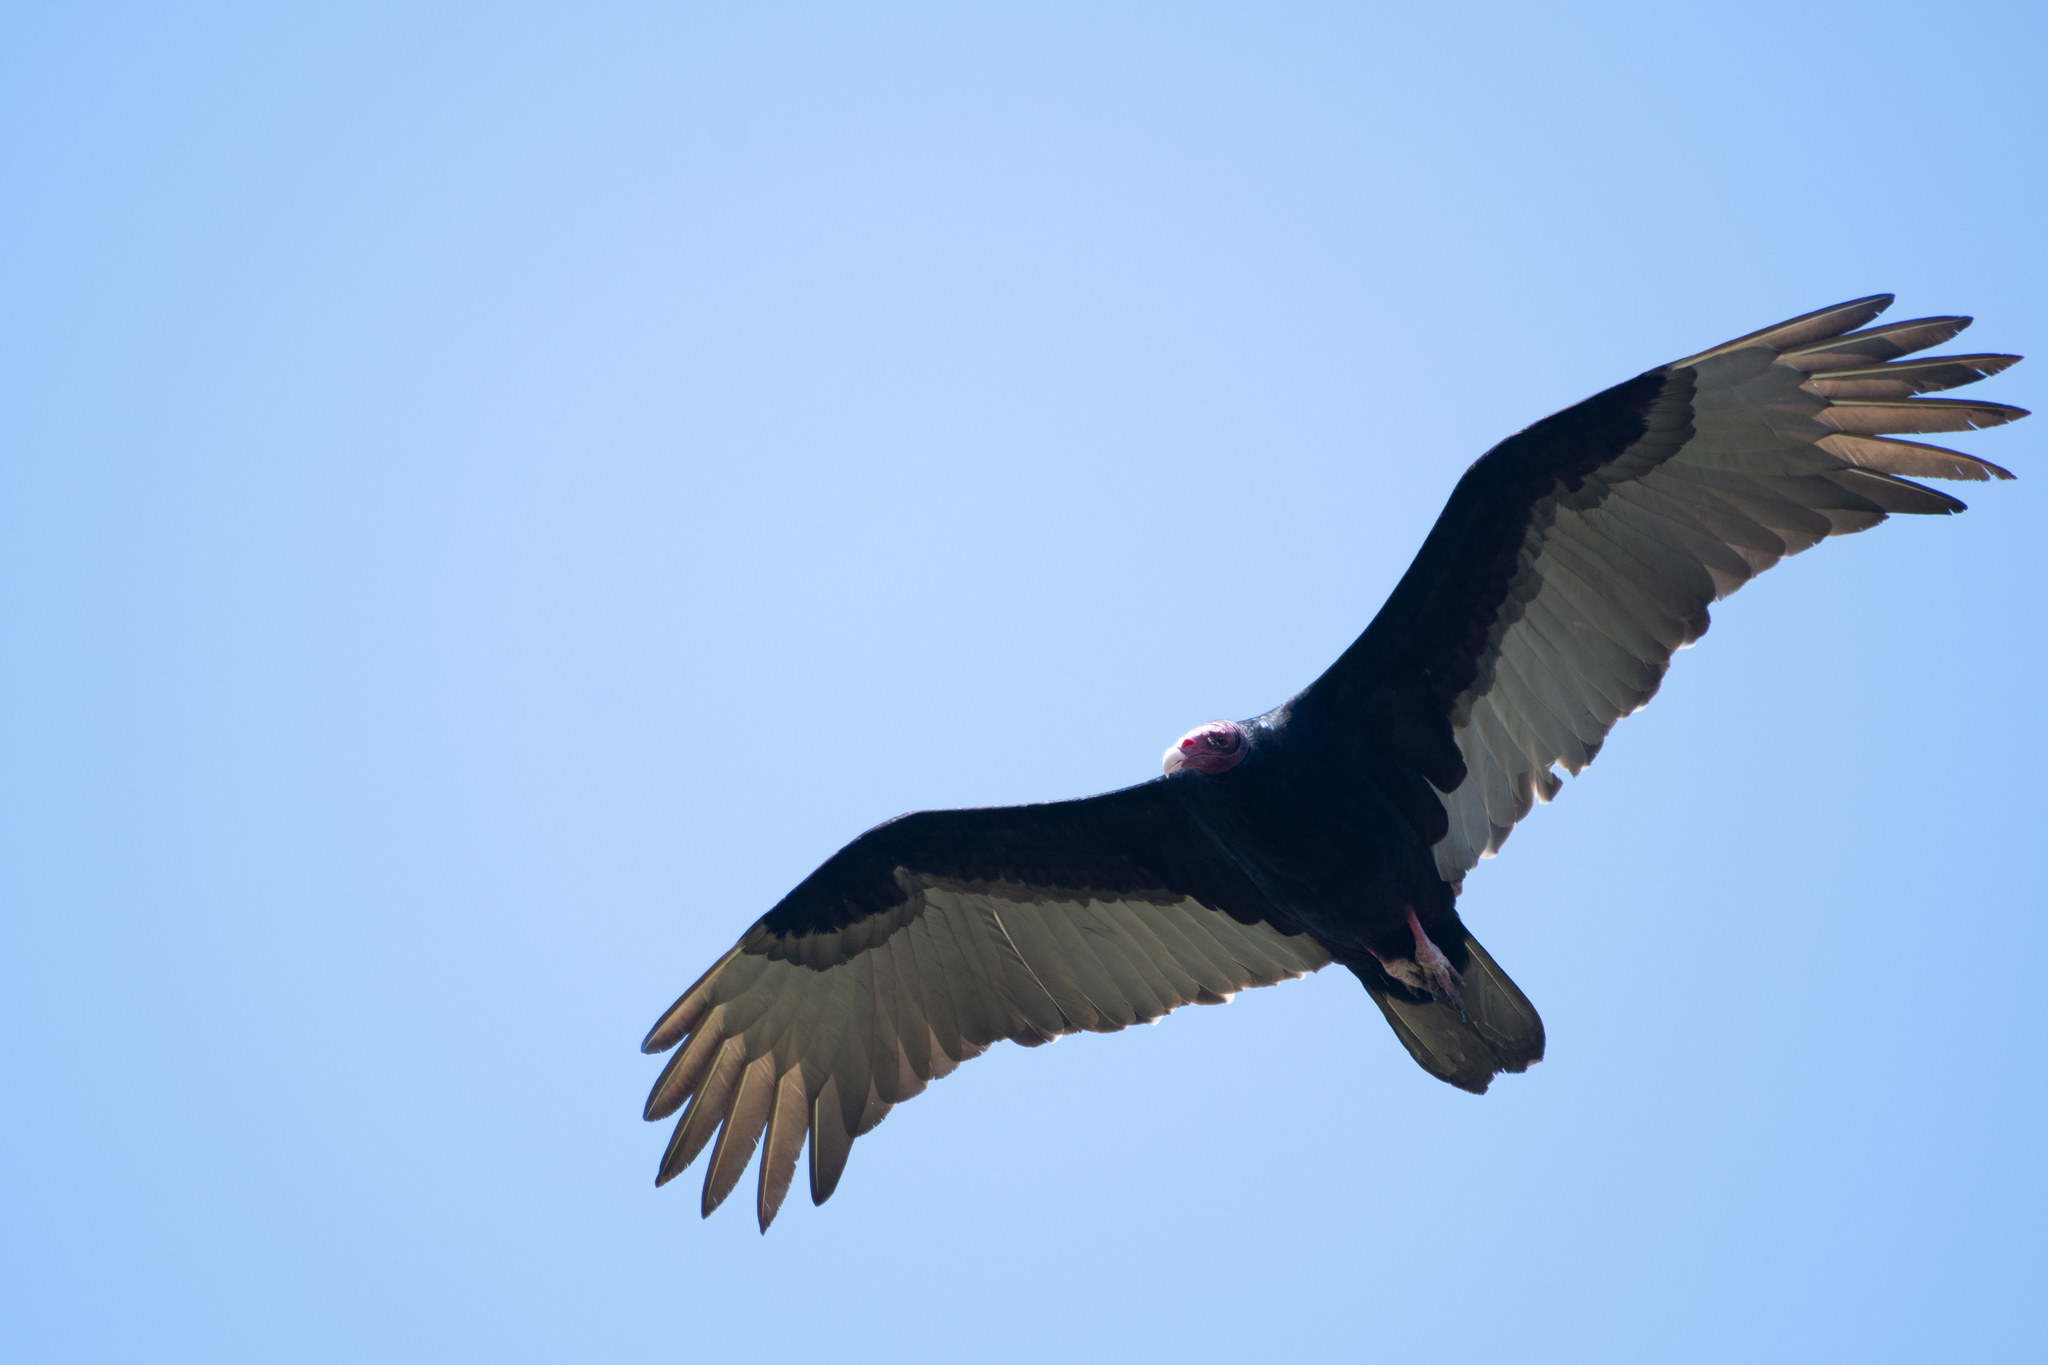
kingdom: Animalia
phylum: Chordata
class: Aves
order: Accipitriformes
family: Cathartidae
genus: Cathartes
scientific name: Cathartes aura
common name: Turkey vulture
